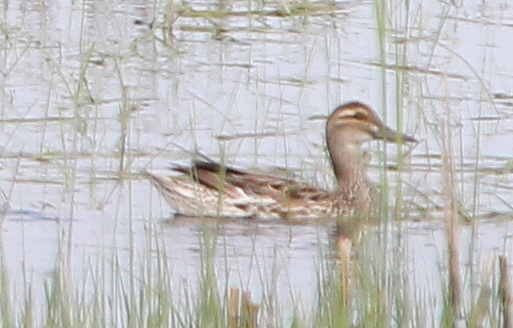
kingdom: Animalia
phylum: Chordata
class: Aves
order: Anseriformes
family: Anatidae
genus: Spatula
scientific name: Spatula querquedula
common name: Garganey
